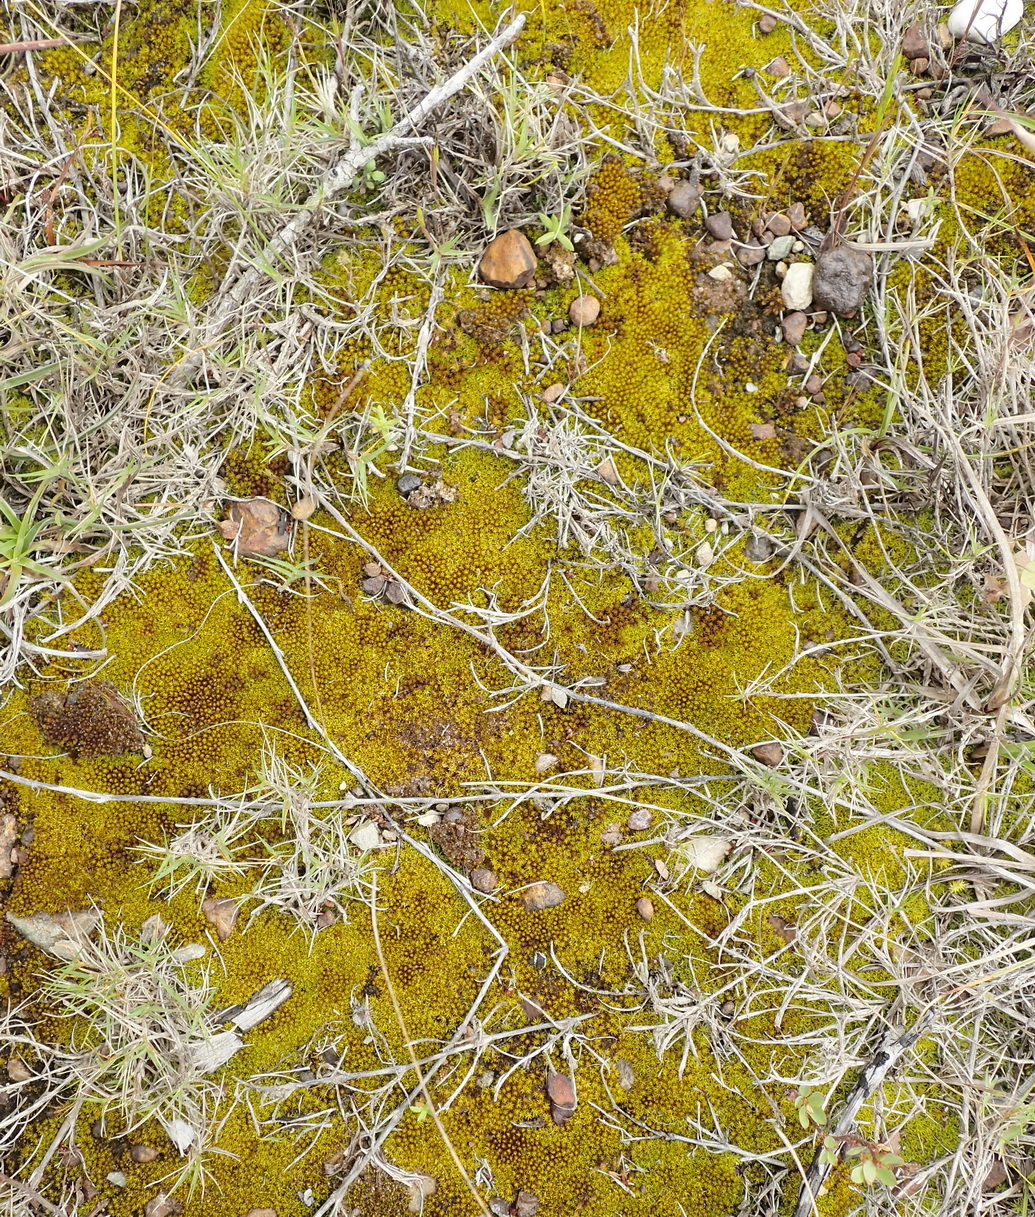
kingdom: Plantae
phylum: Bryophyta
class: Bryopsida
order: Pottiales
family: Pottiaceae
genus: Trichostomum
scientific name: Trichostomum brachydontium
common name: Variable crisp-moss
